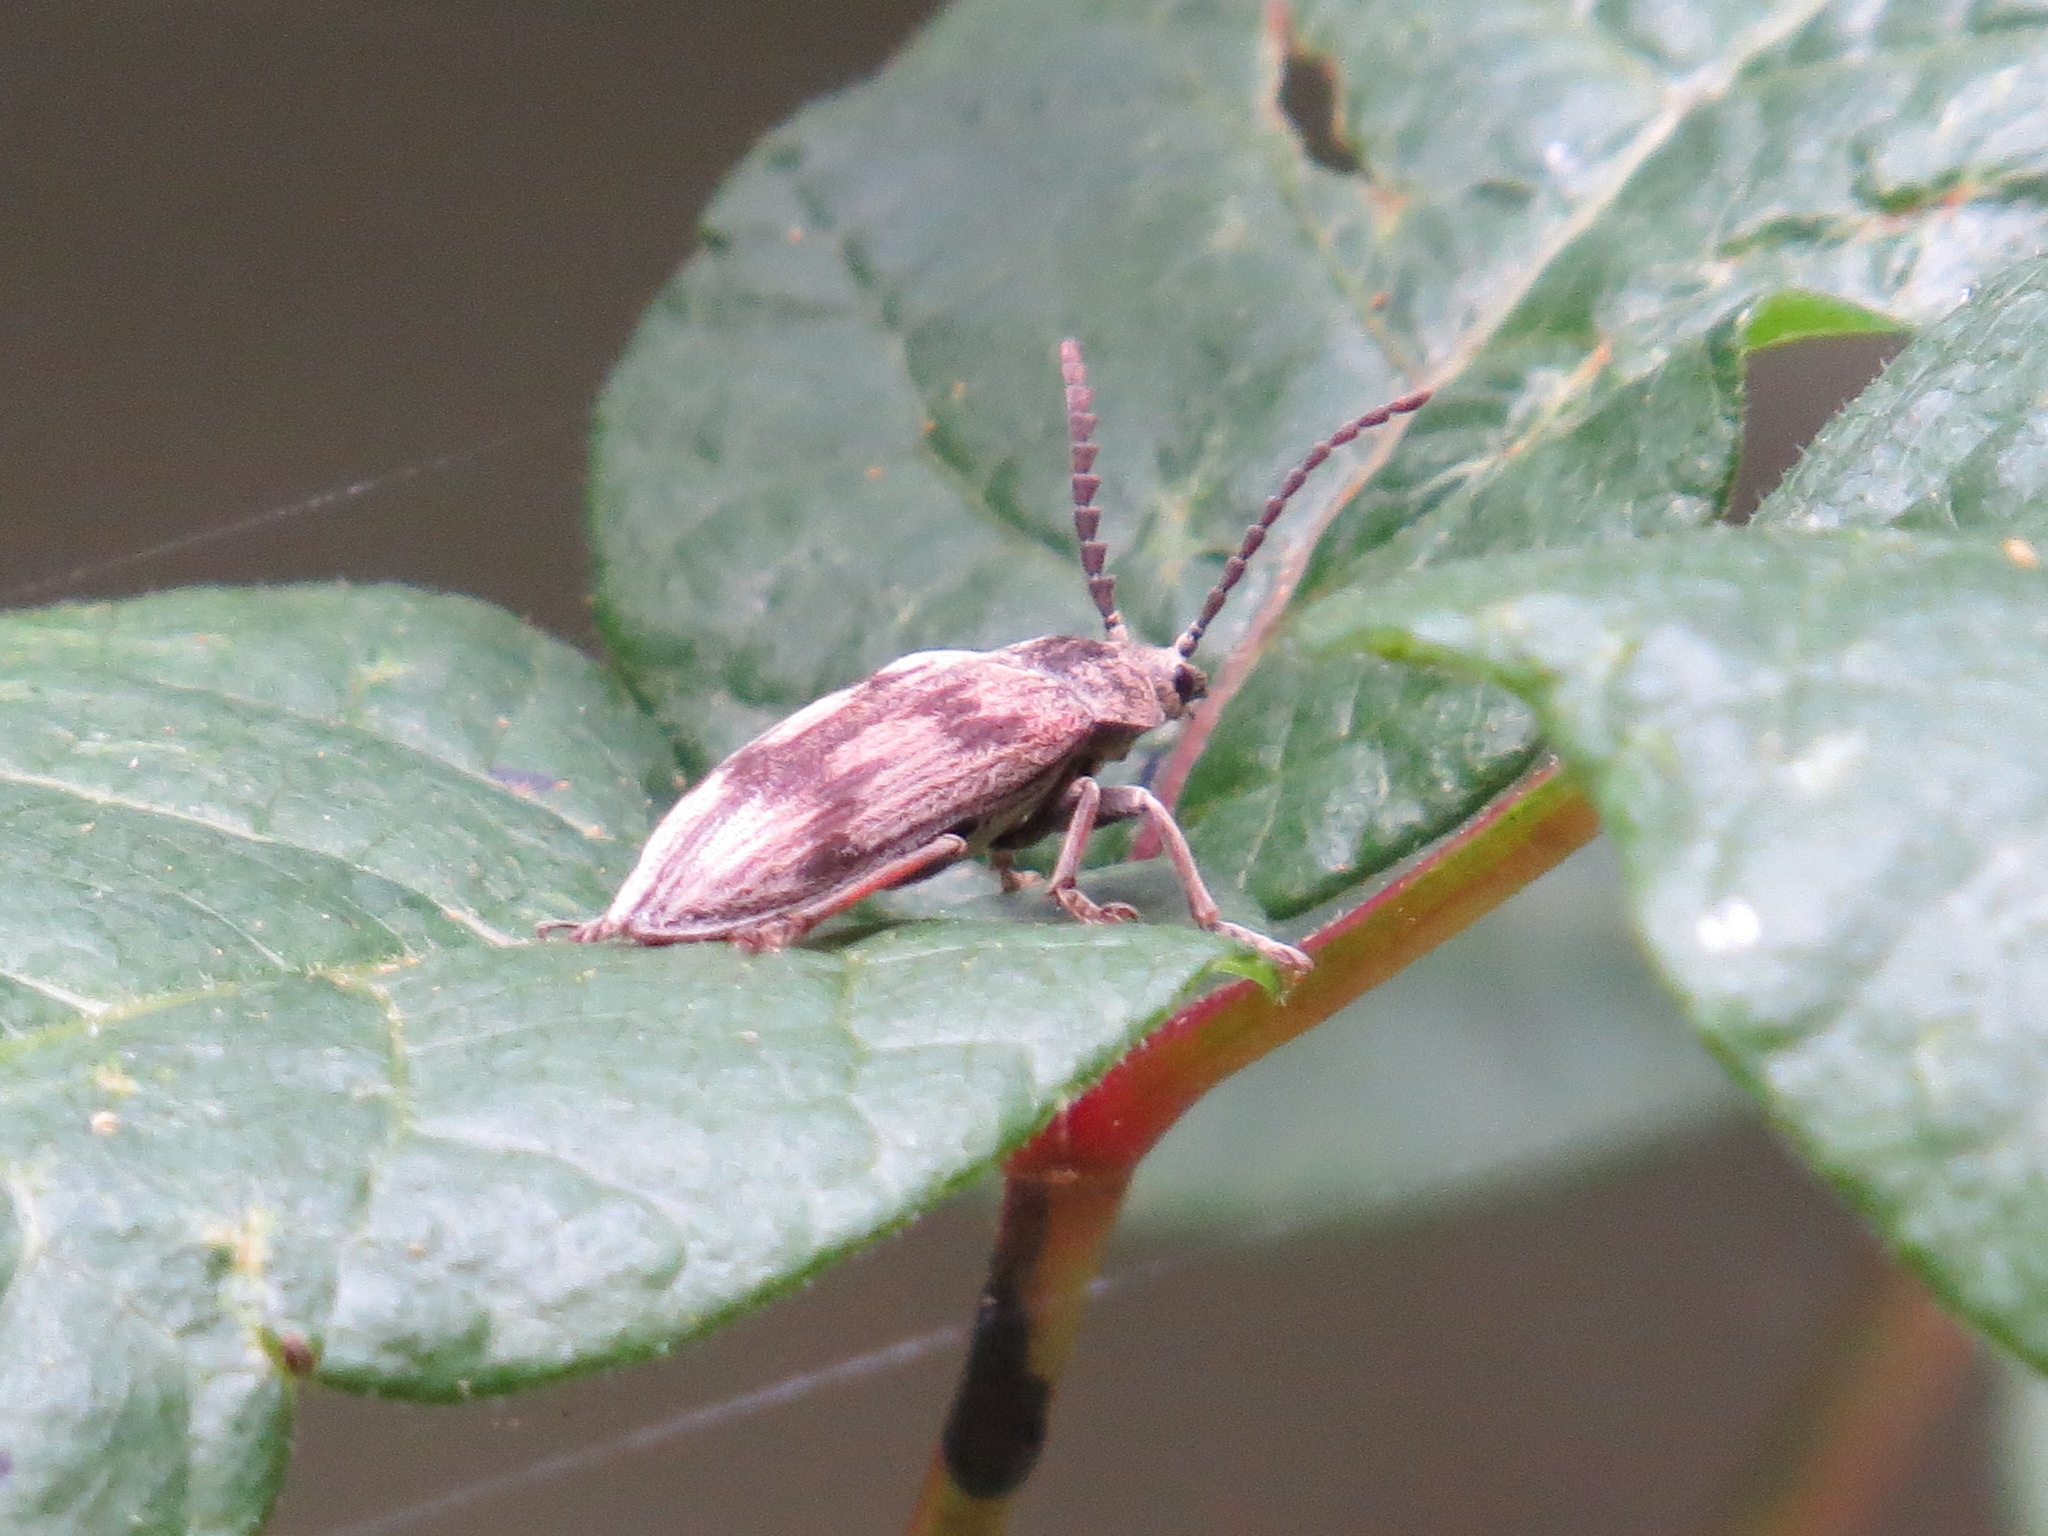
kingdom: Animalia
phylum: Arthropoda
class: Insecta
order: Coleoptera
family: Dascillidae
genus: Dascillus
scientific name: Dascillus davidsoni
